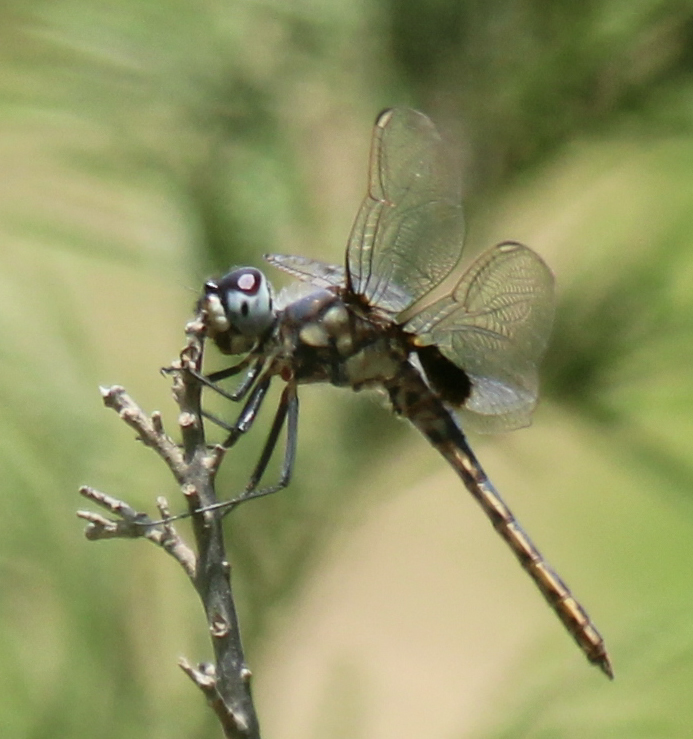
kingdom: Animalia
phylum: Arthropoda
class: Insecta
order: Odonata
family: Libellulidae
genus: Urothemis
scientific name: Urothemis edwardsii
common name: Blue basker
